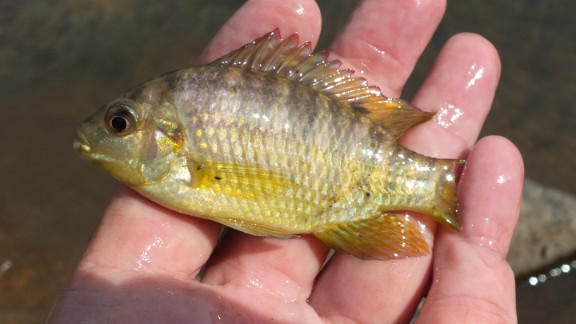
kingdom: Animalia
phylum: Chordata
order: Perciformes
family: Cichlidae
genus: Tilapia
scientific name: Tilapia sparrmanii
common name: Banded tilapia
